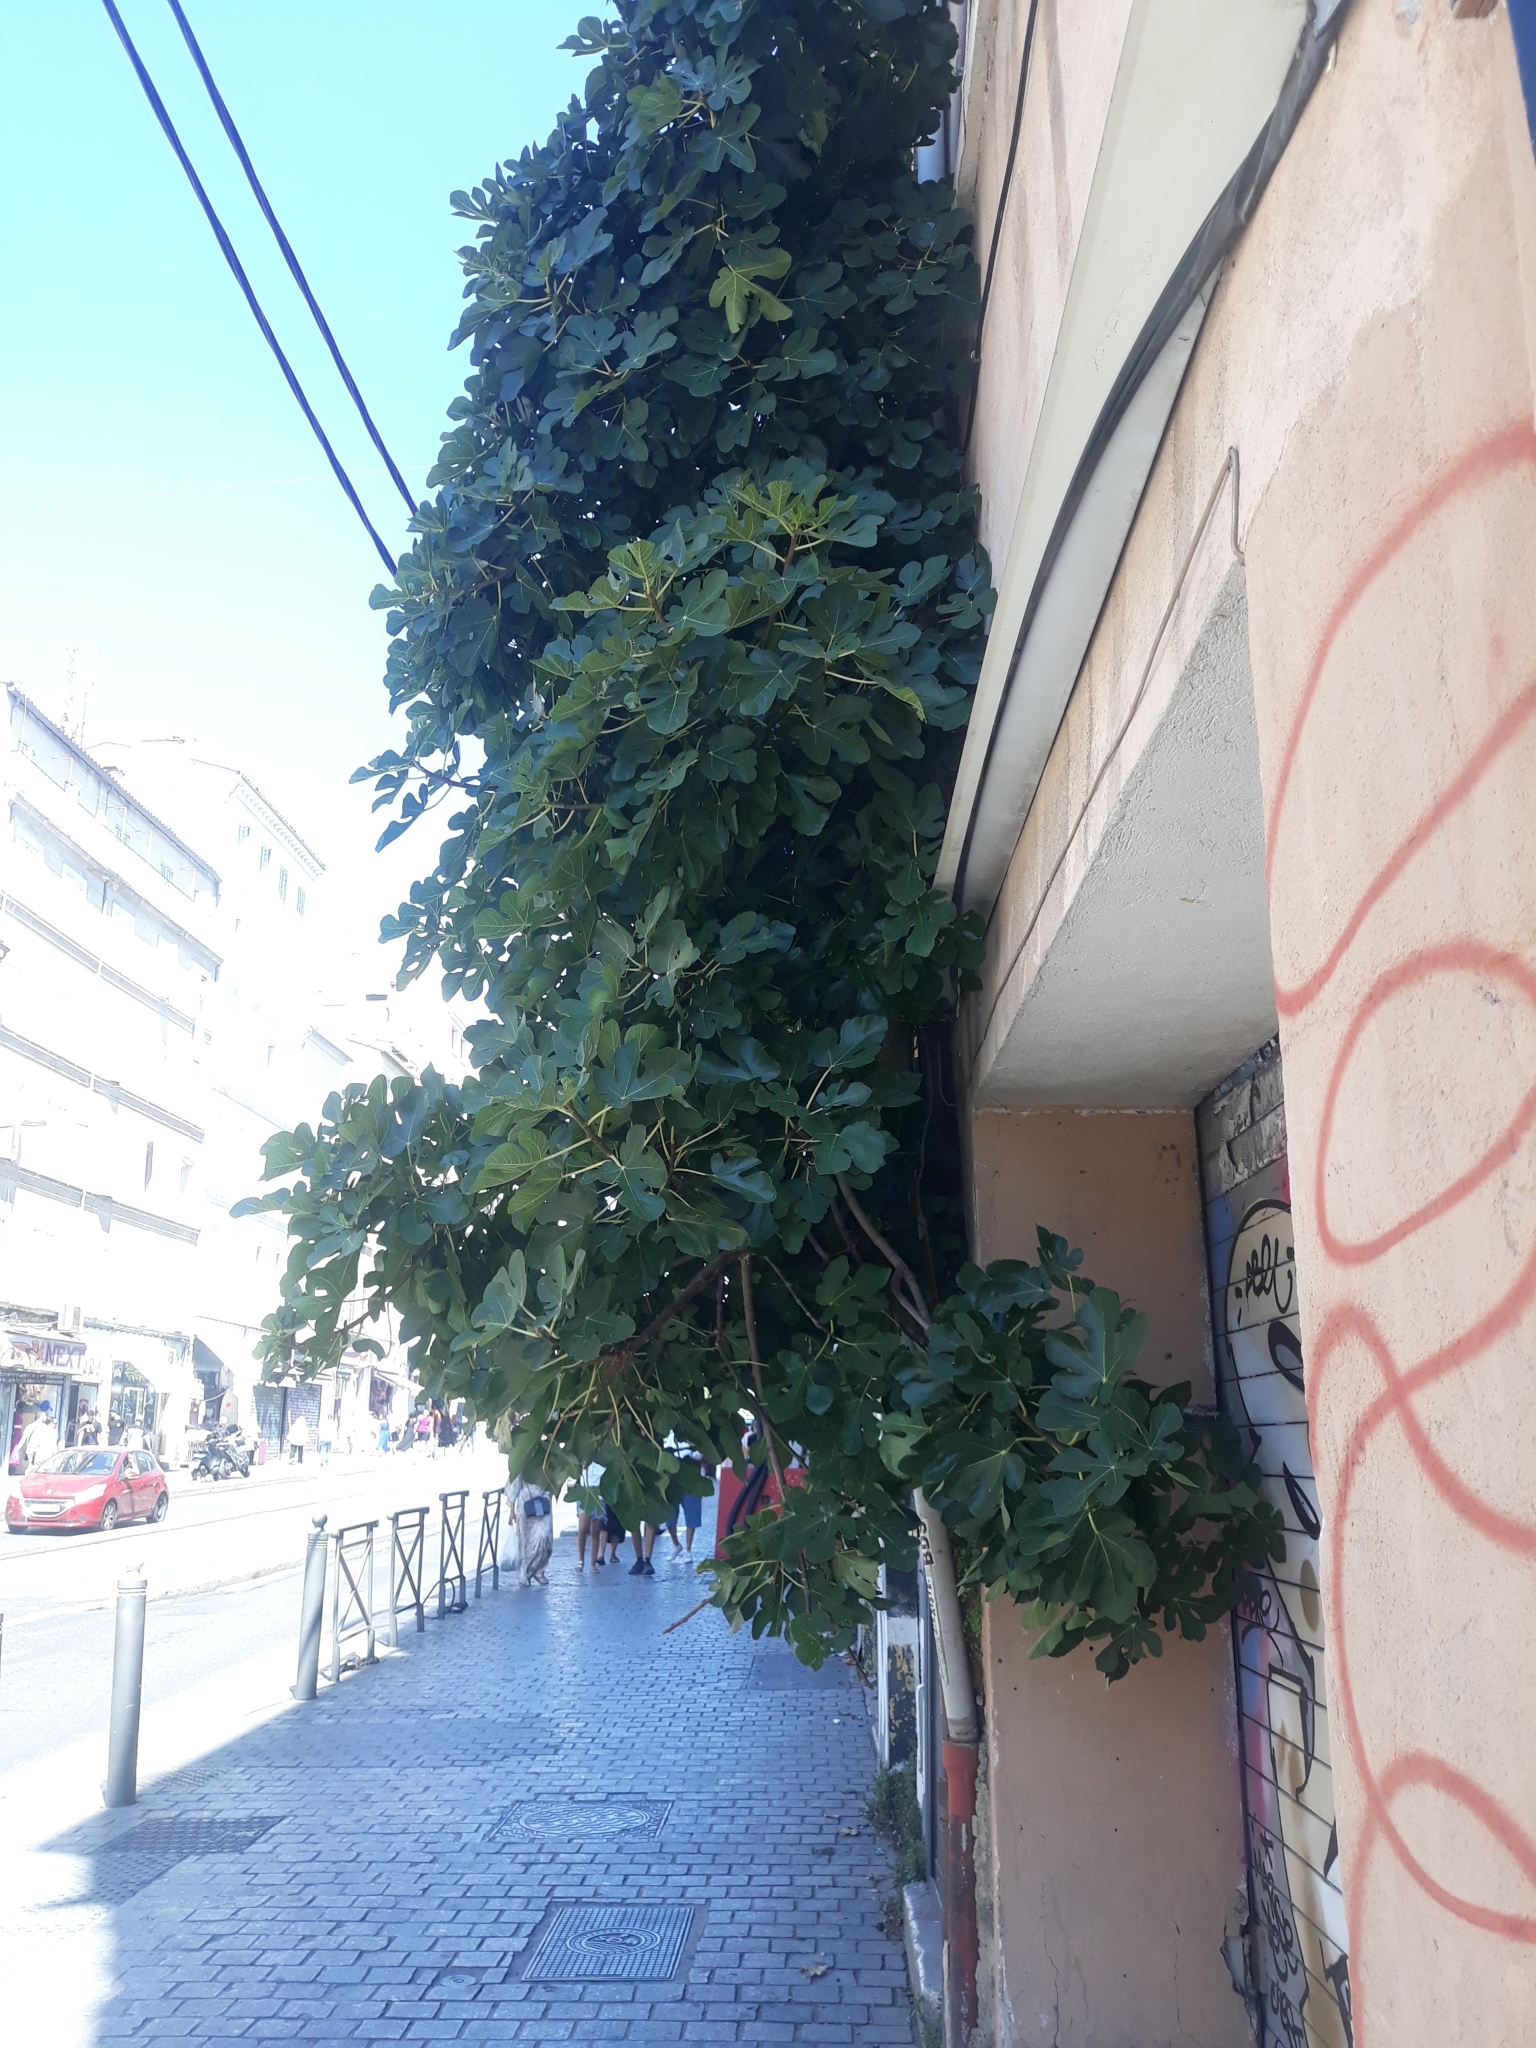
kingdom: Plantae
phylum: Tracheophyta
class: Magnoliopsida
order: Rosales
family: Moraceae
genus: Ficus
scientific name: Ficus carica
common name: Fig
